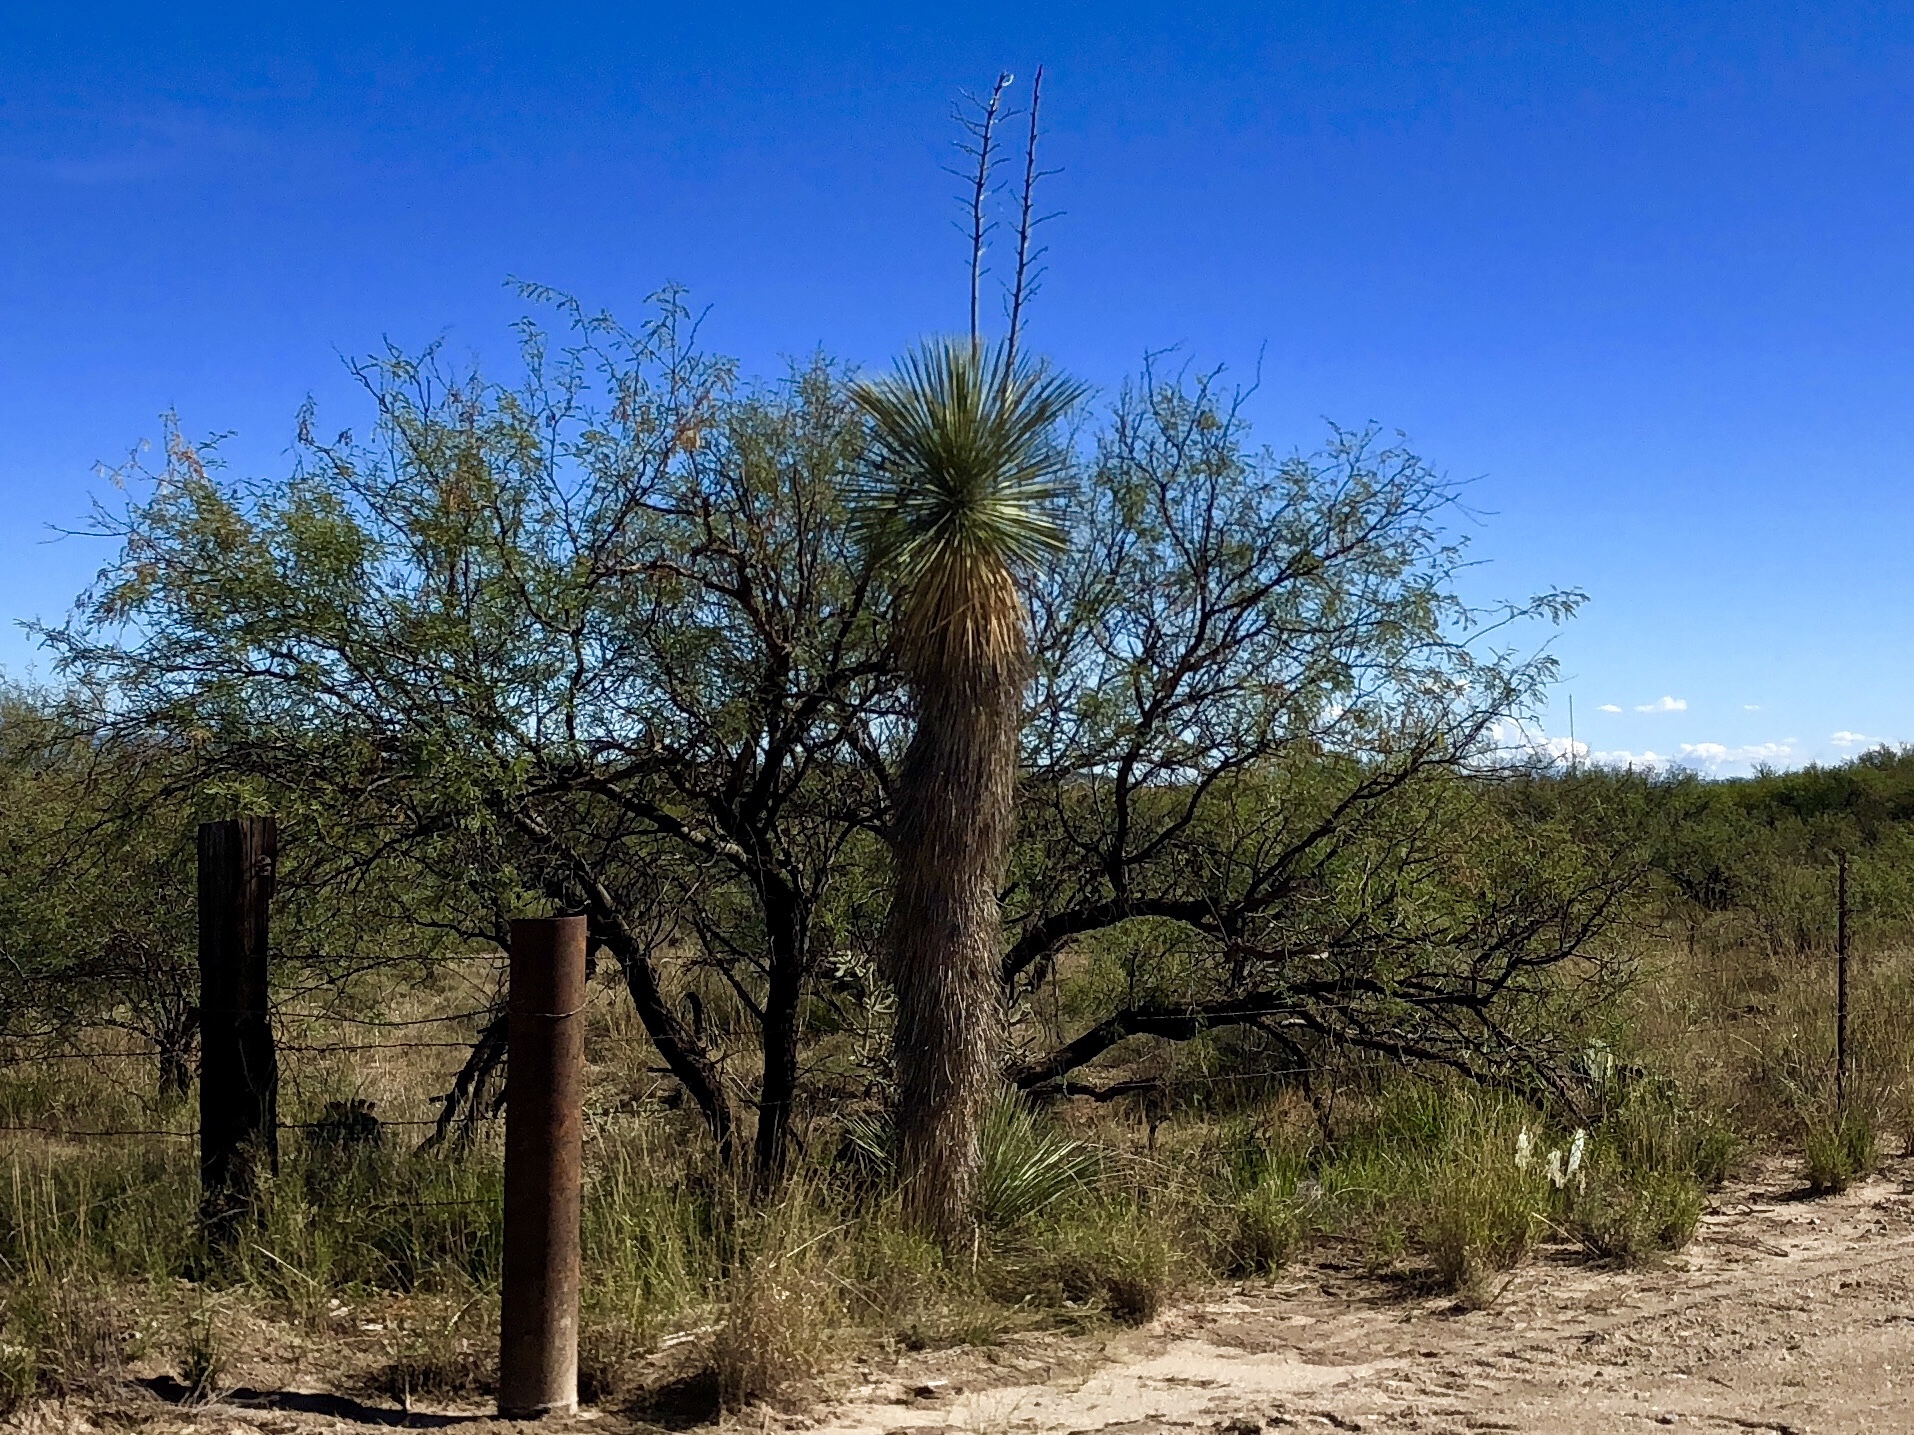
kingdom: Plantae
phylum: Tracheophyta
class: Liliopsida
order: Asparagales
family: Asparagaceae
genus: Yucca
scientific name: Yucca elata
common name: Palmella
